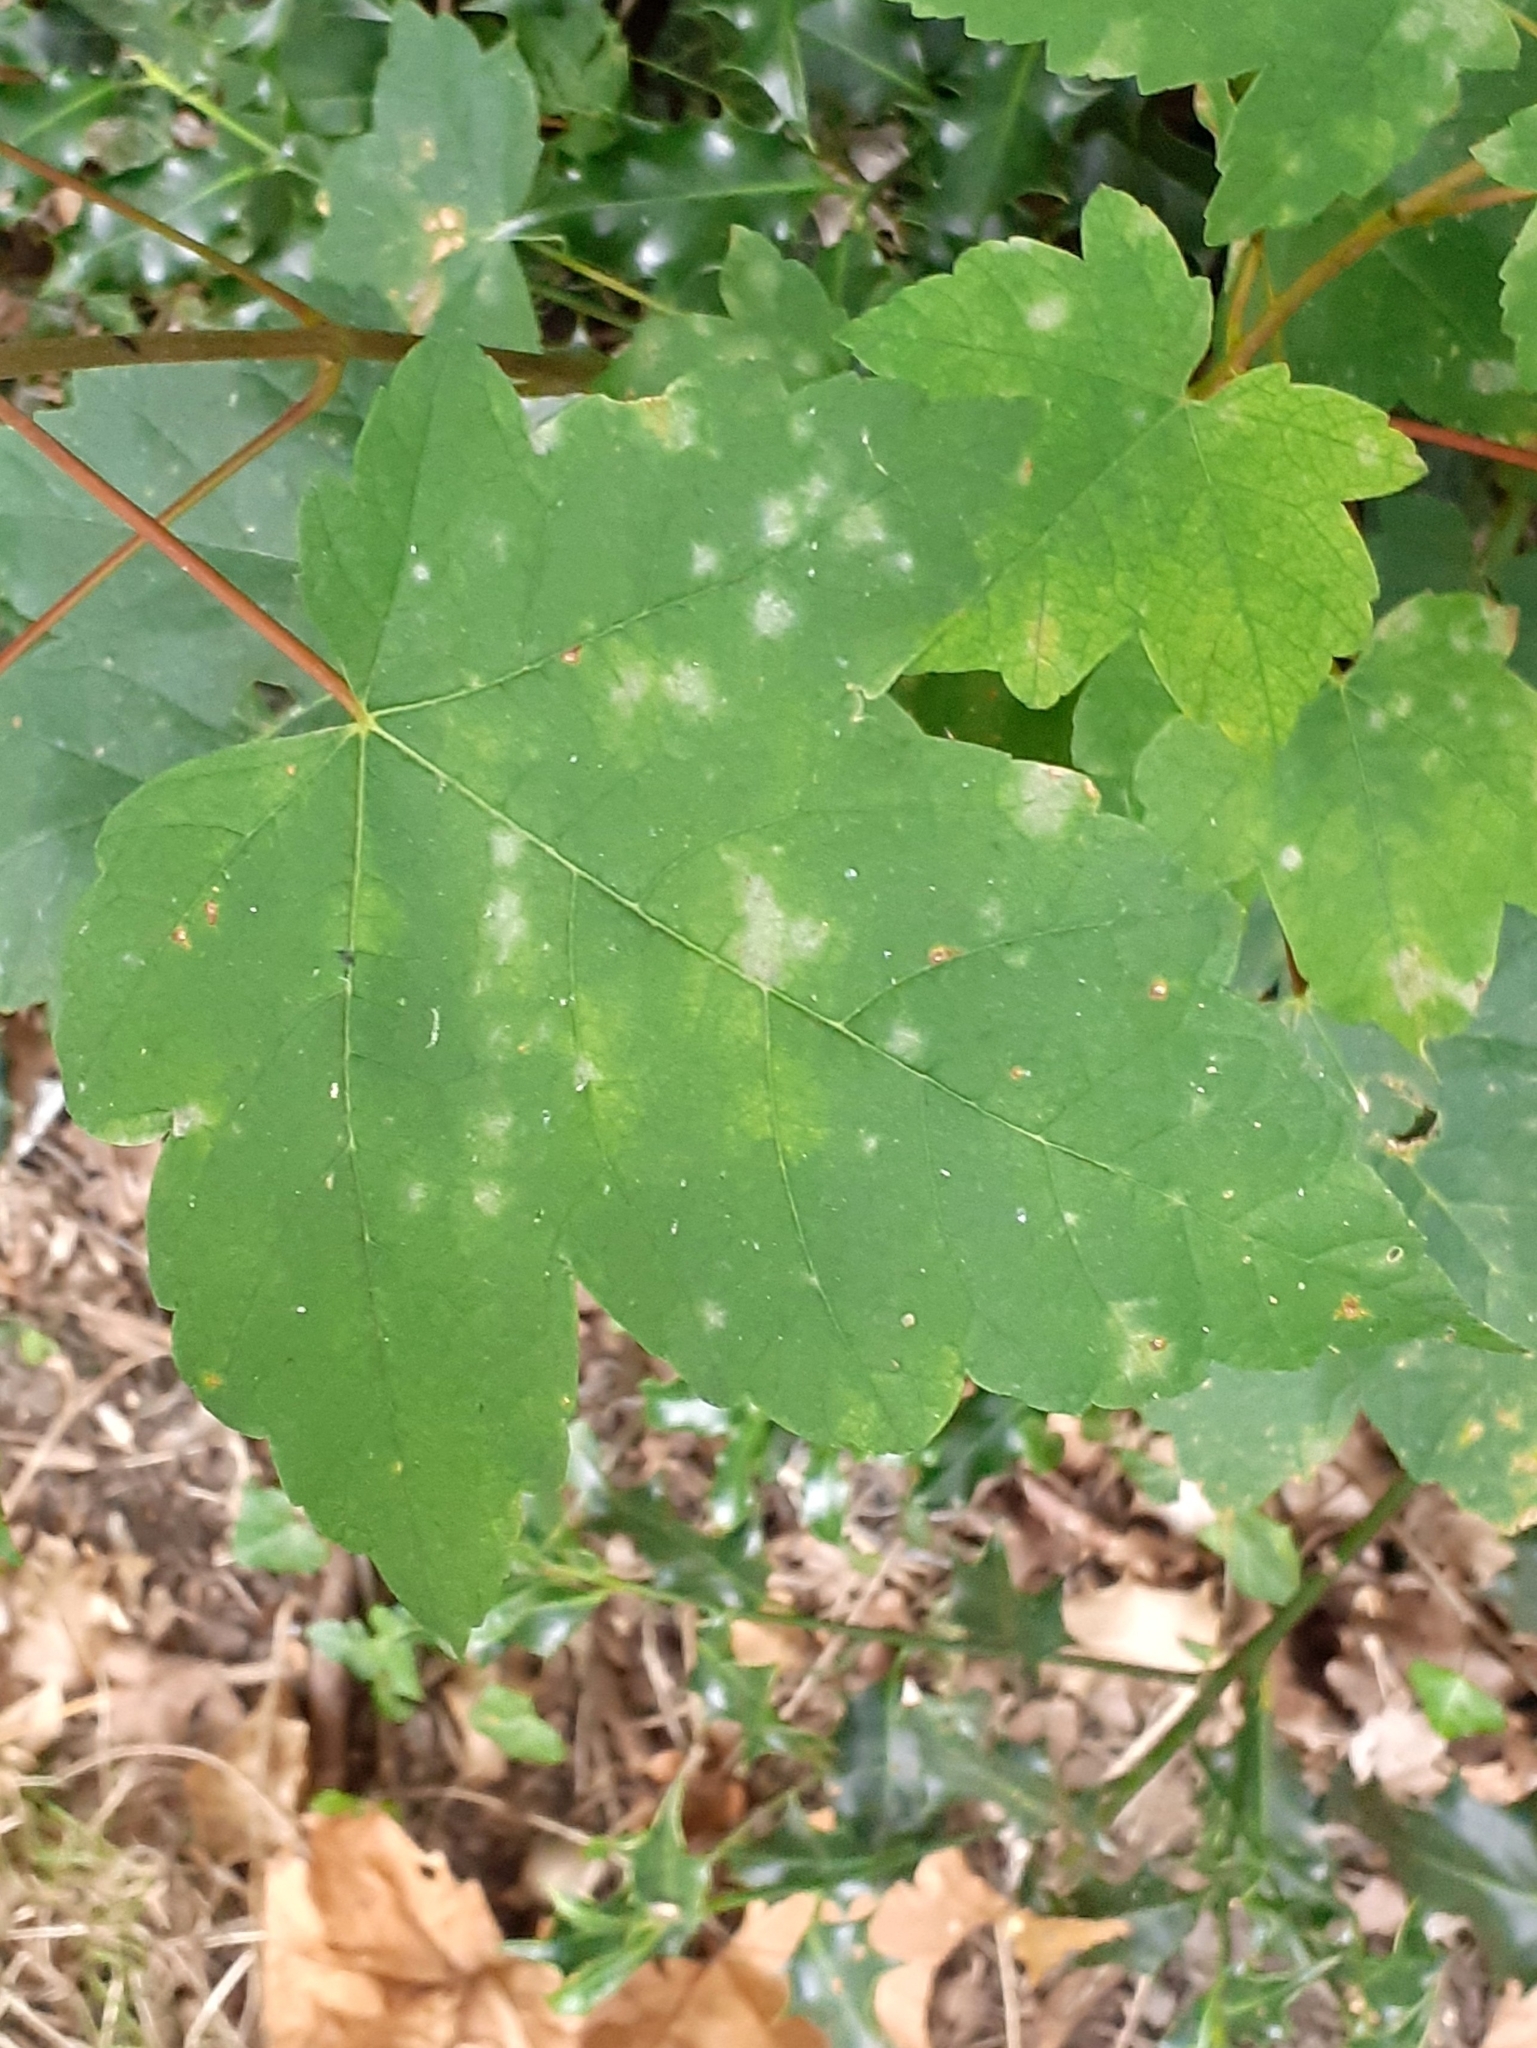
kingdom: Plantae
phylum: Tracheophyta
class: Magnoliopsida
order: Sapindales
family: Sapindaceae
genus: Acer
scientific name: Acer pseudoplatanus
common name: Sycamore
